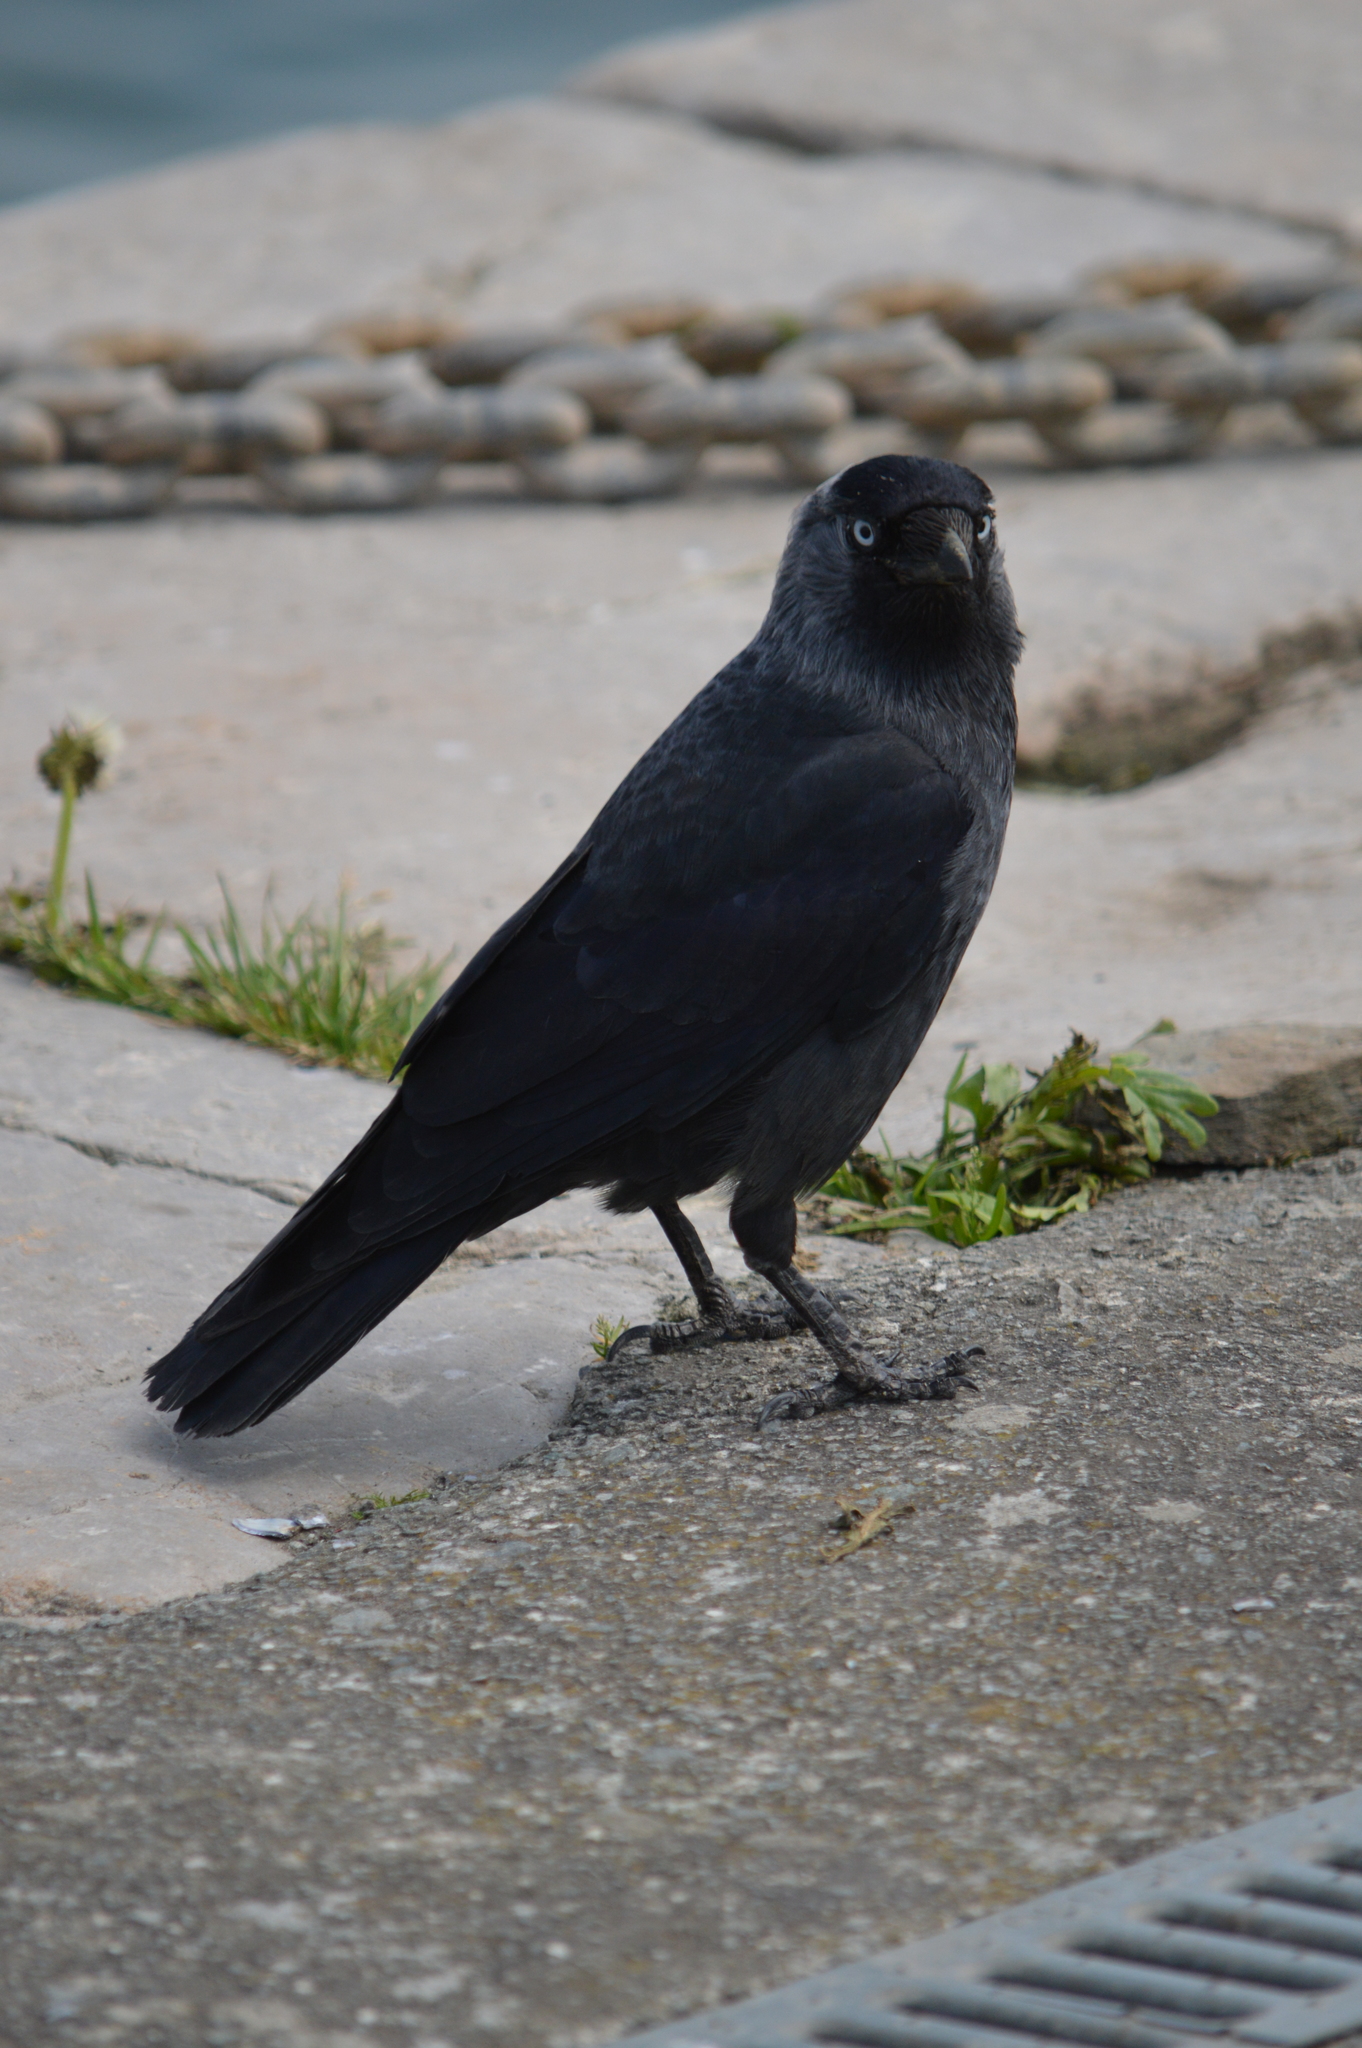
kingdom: Animalia
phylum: Chordata
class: Aves
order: Passeriformes
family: Corvidae
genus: Coloeus
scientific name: Coloeus monedula
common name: Western jackdaw
